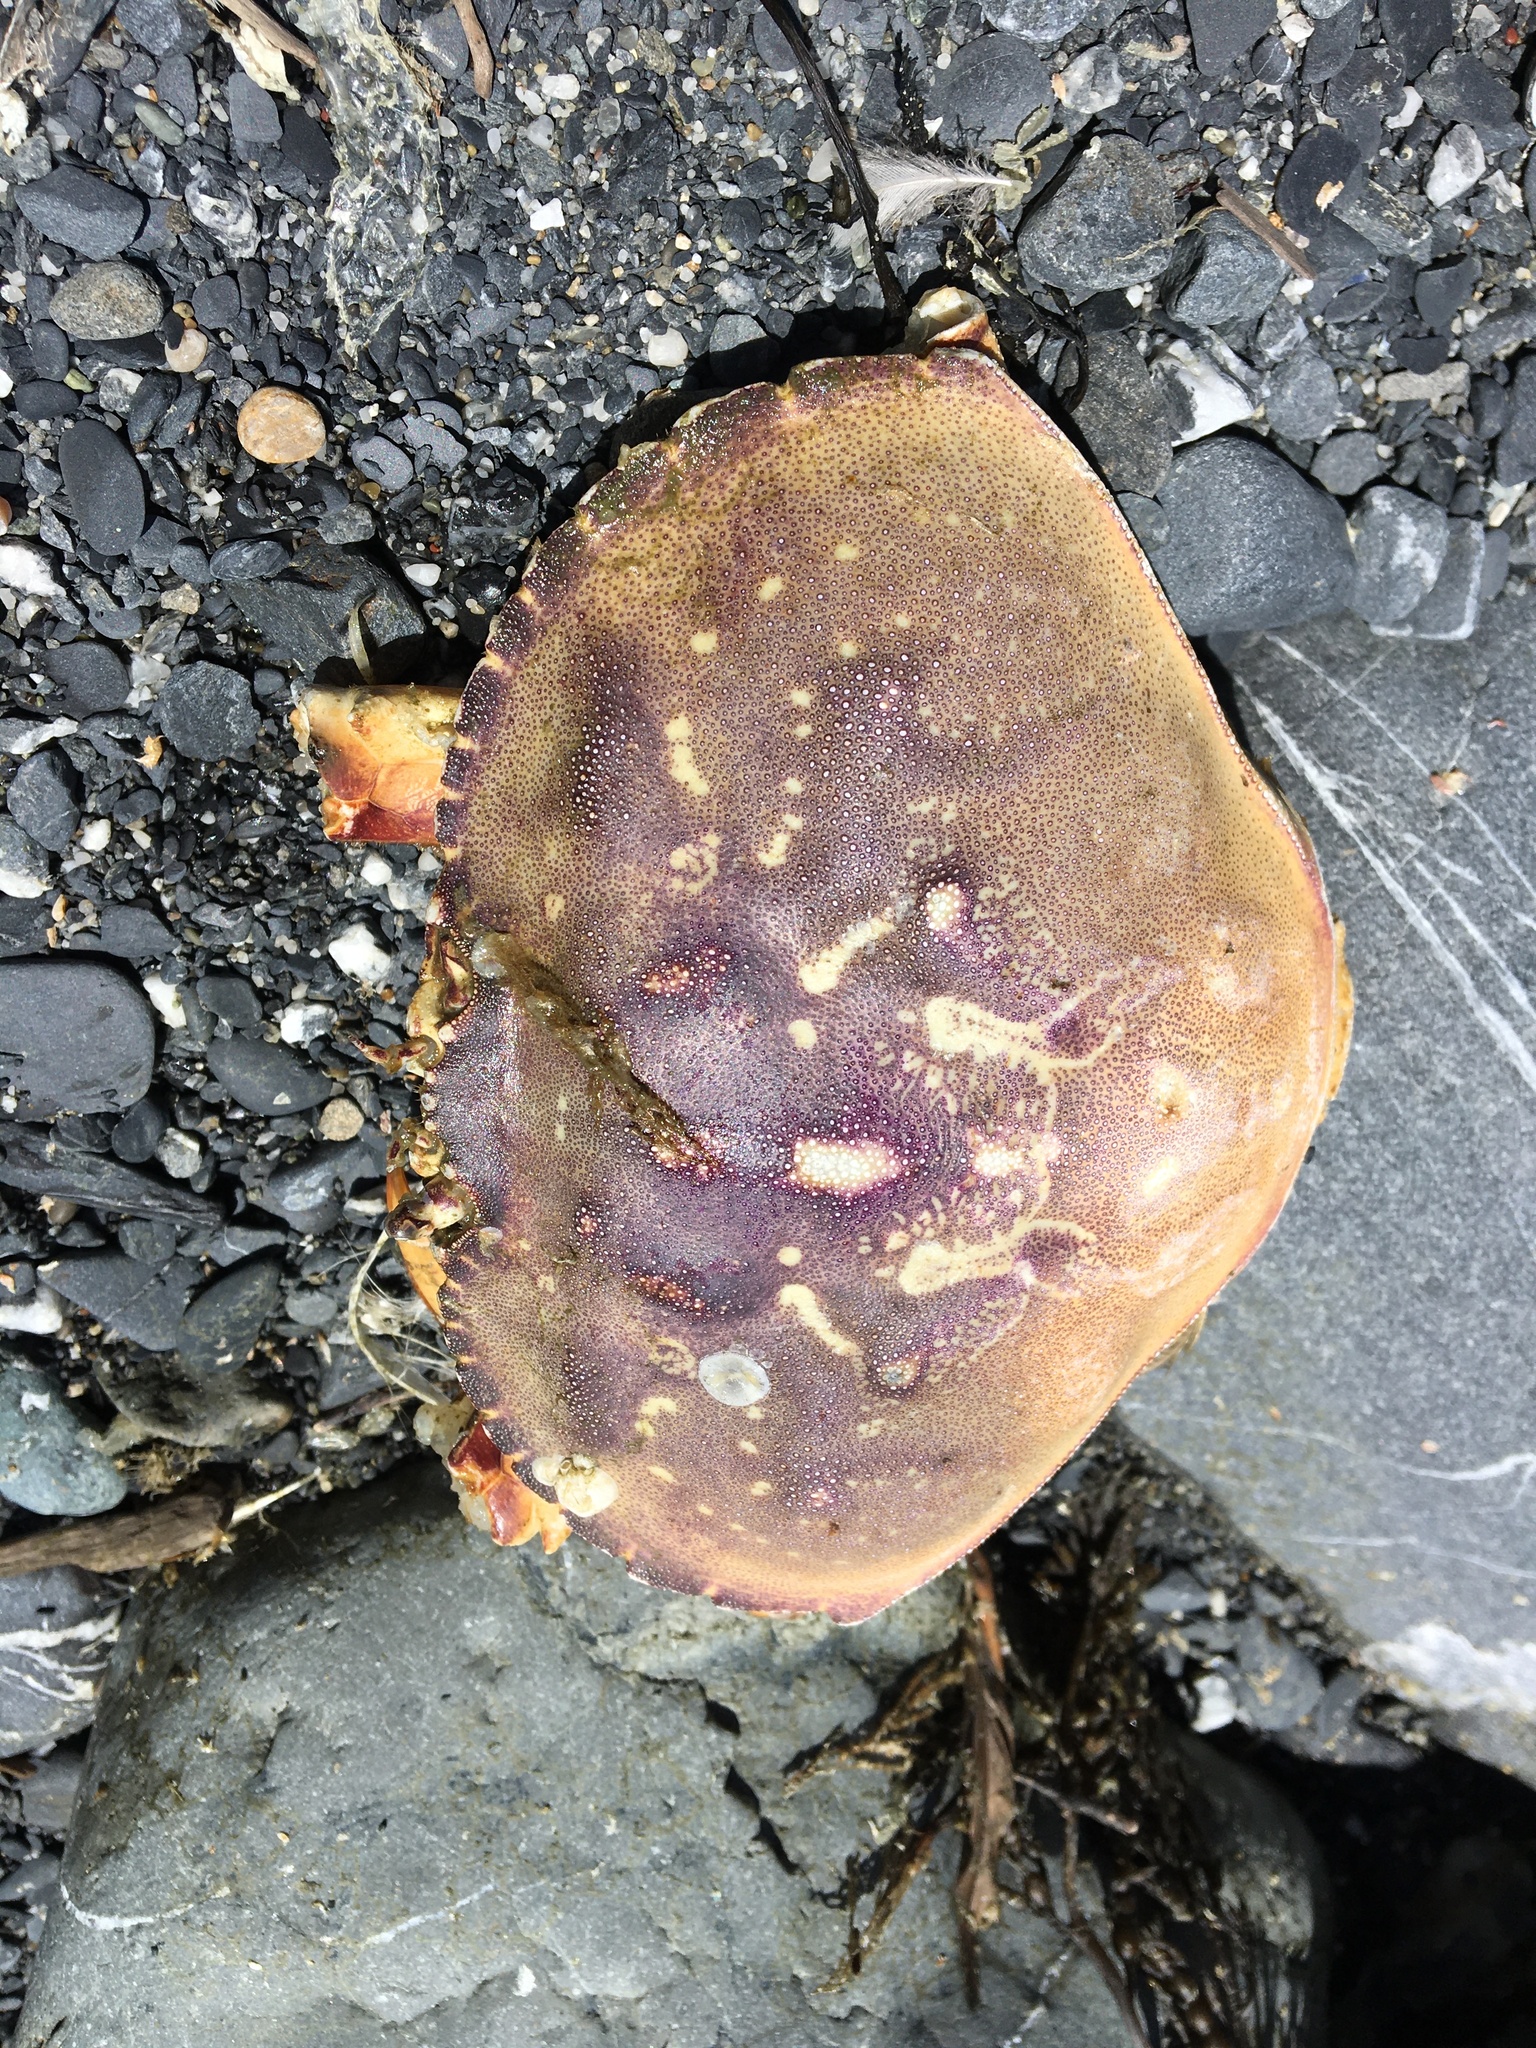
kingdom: Animalia
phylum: Arthropoda
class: Malacostraca
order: Decapoda
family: Cancridae
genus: Metacarcinus
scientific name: Metacarcinus magister
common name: Californian crab
